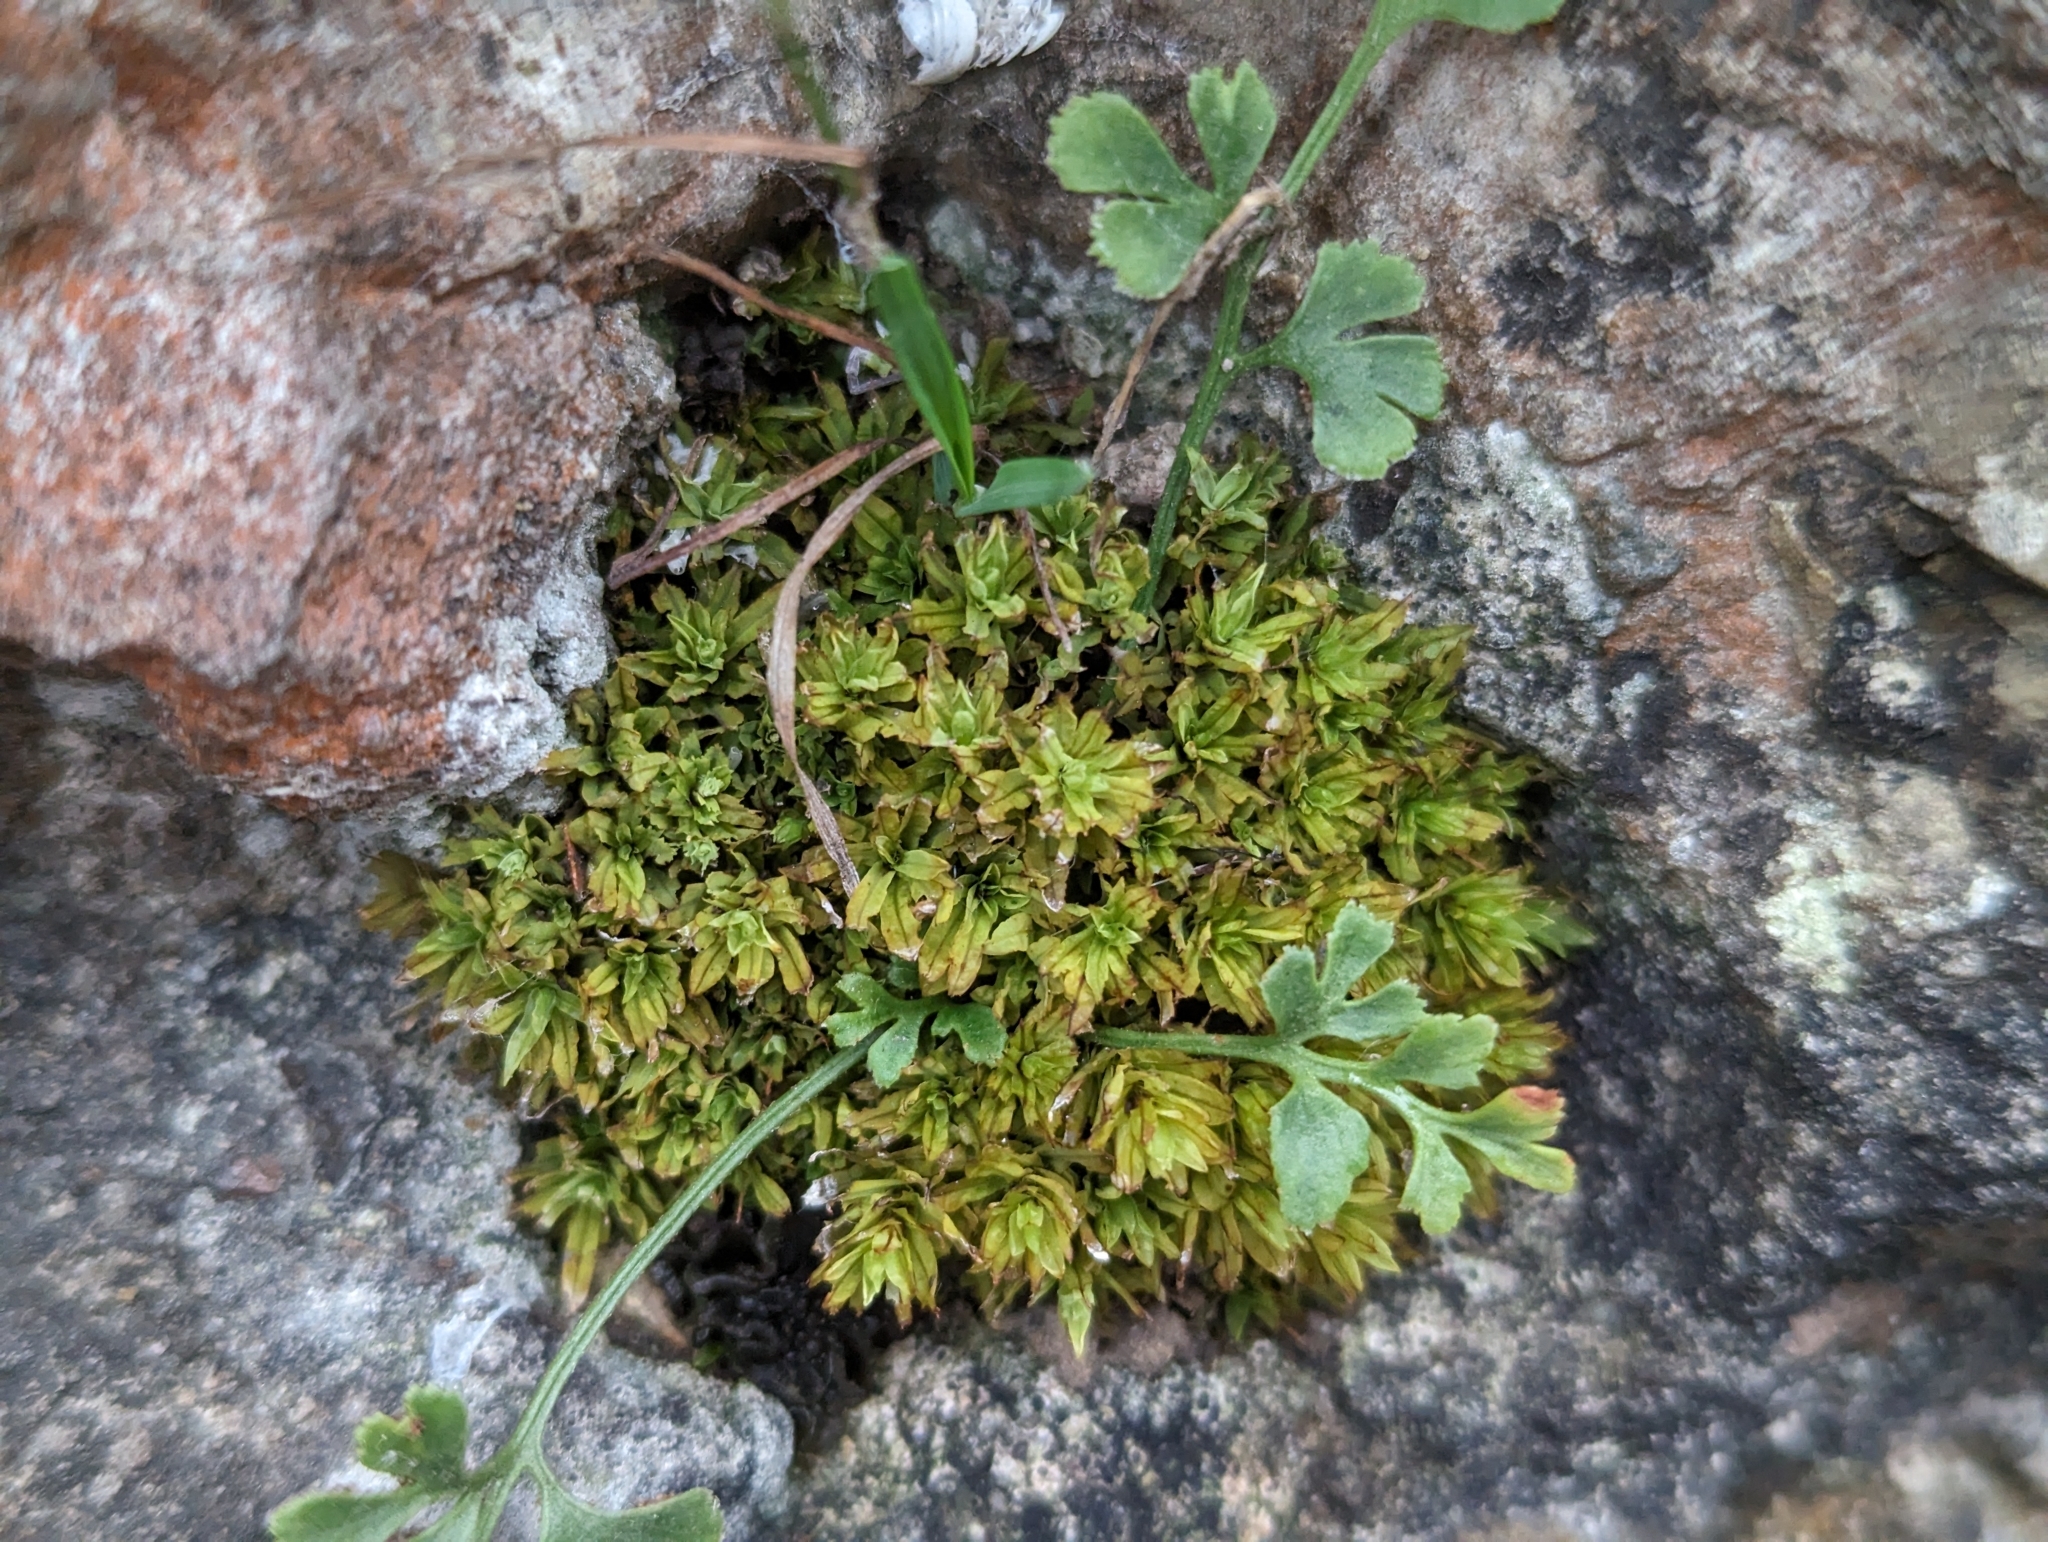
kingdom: Plantae
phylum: Bryophyta
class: Bryopsida
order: Encalyptales
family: Encalyptaceae
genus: Encalypta
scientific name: Encalypta streptocarpa
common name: Spiral extinguisher-moss
